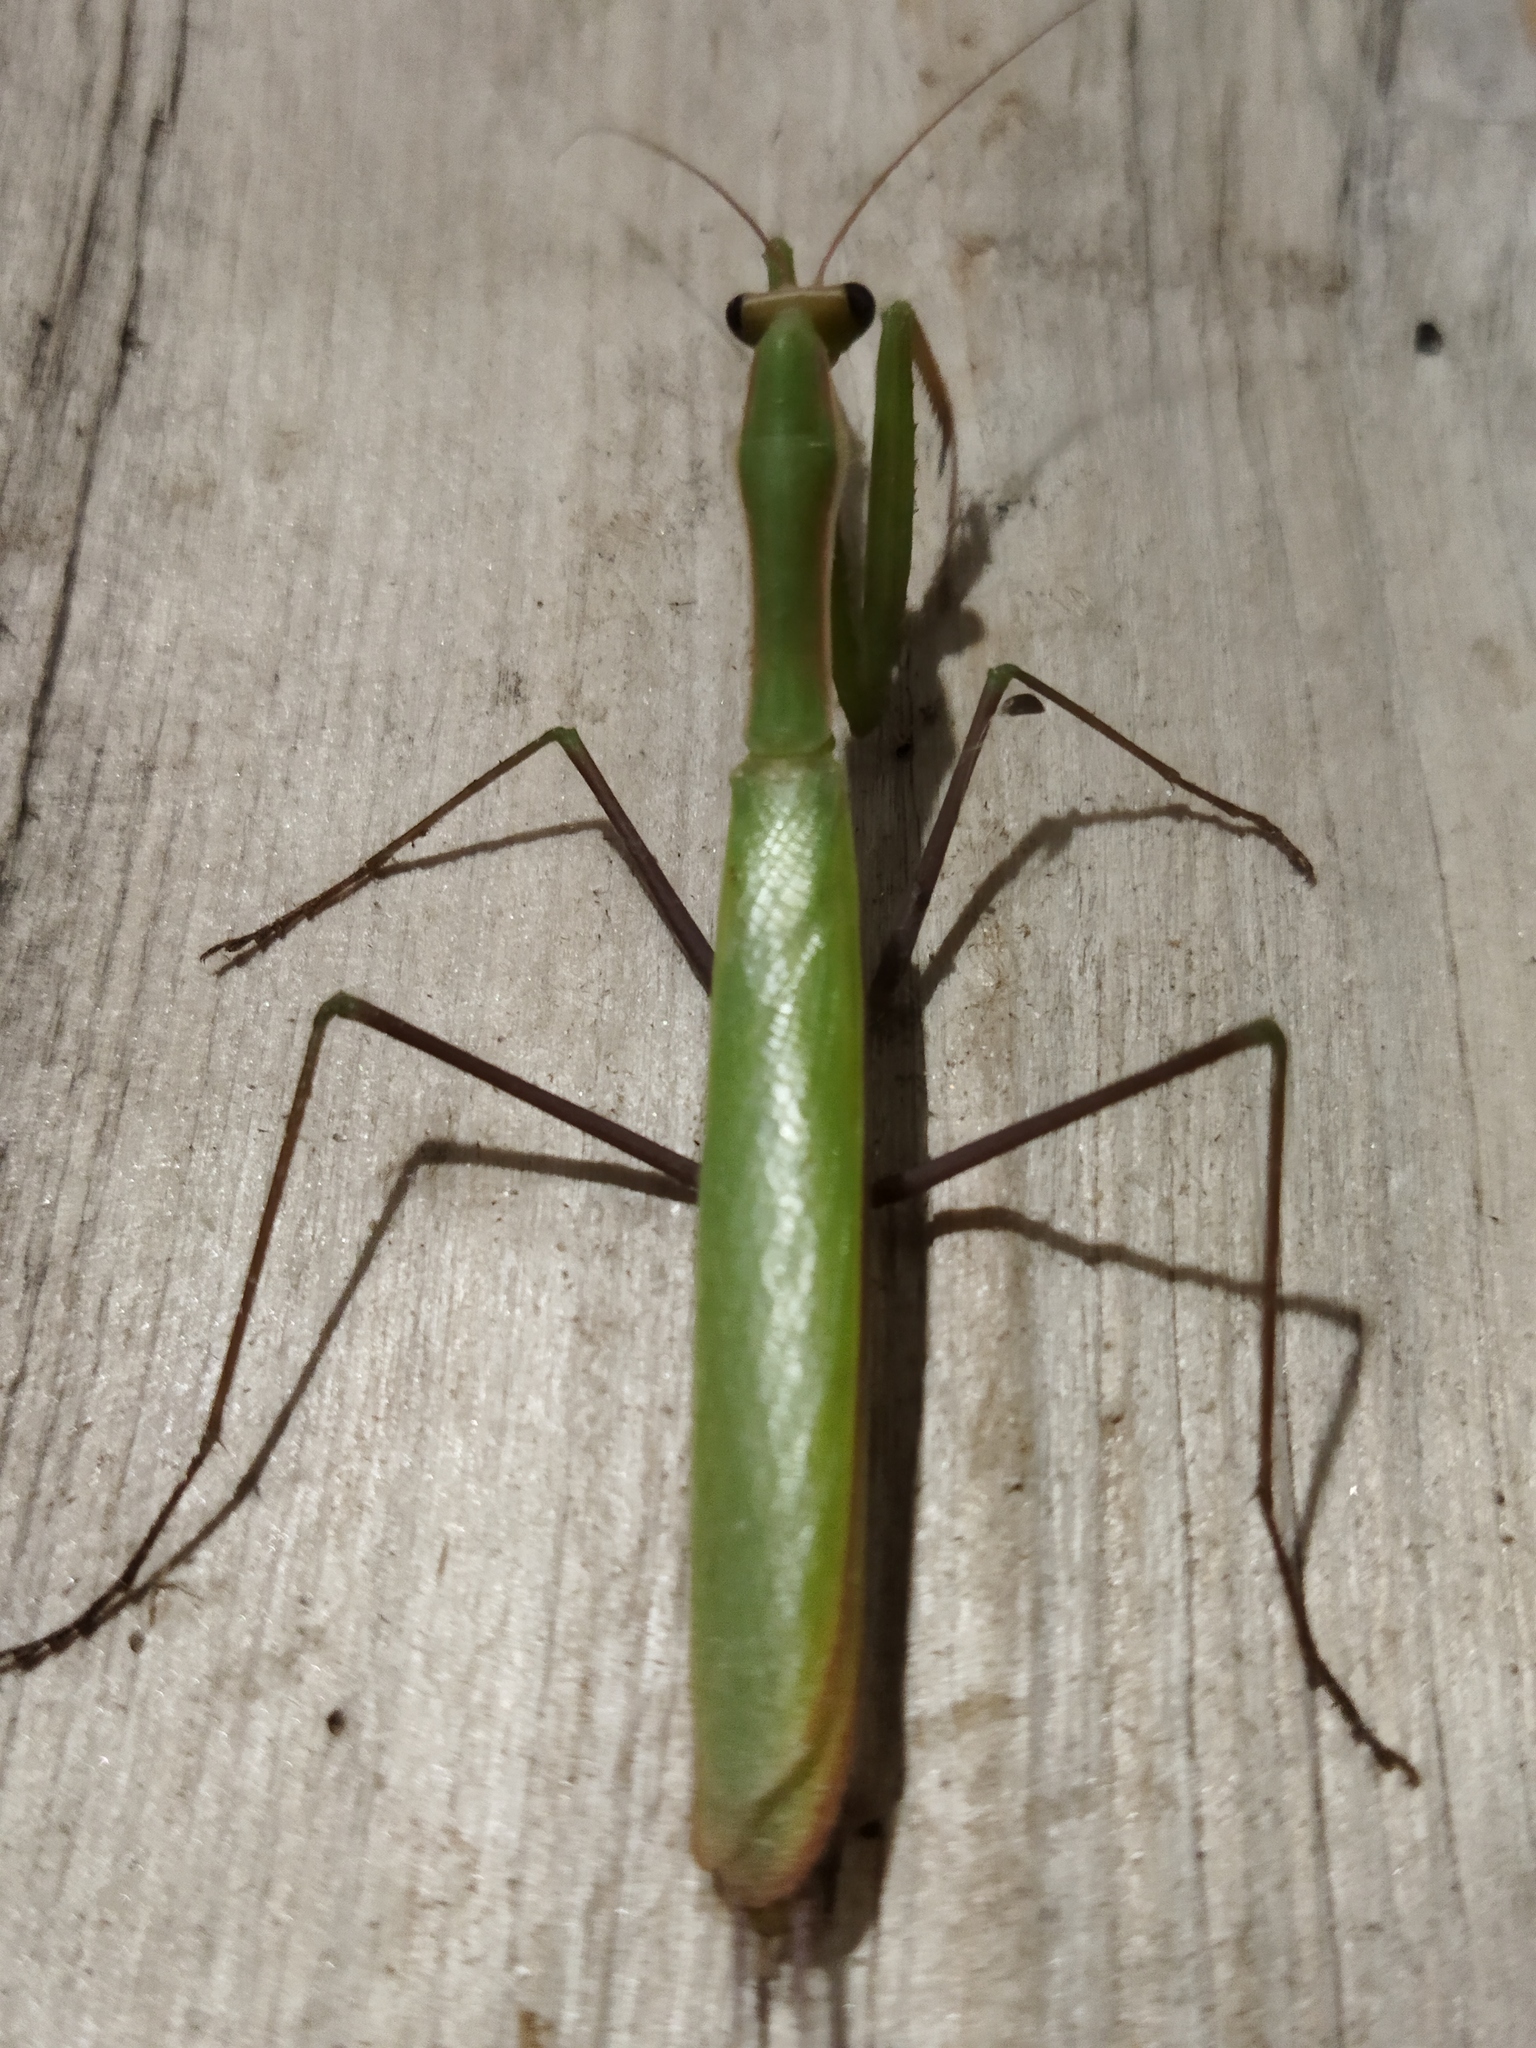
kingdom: Animalia
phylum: Arthropoda
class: Insecta
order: Mantodea
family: Mantidae
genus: Mantis
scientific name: Mantis religiosa
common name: Praying mantis
